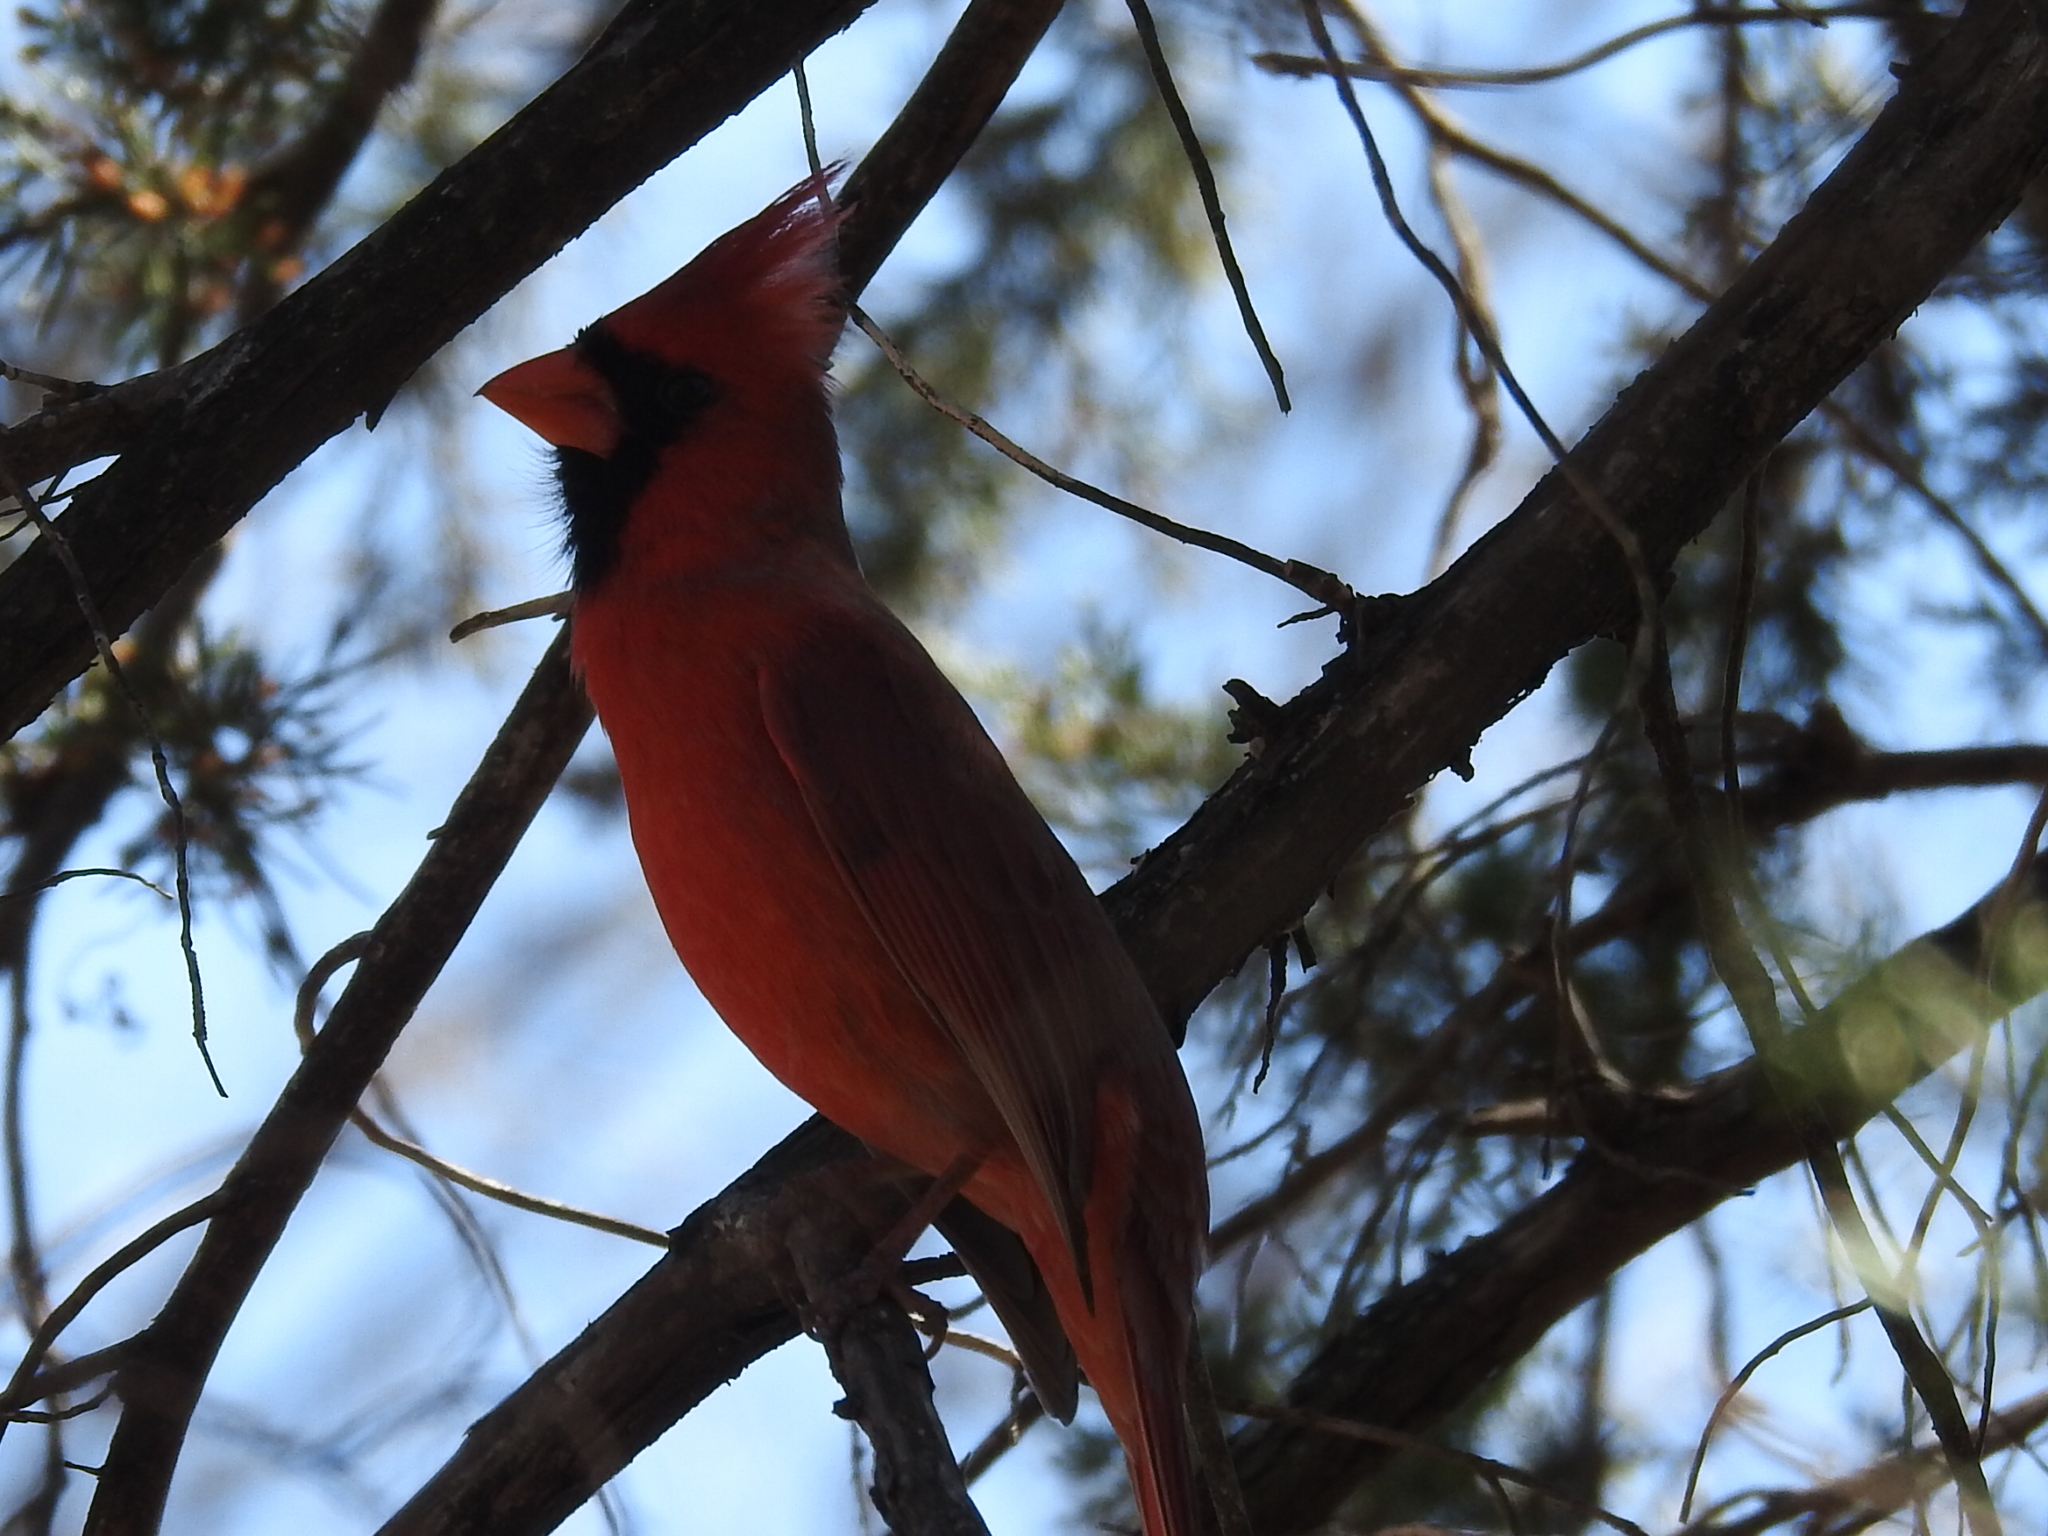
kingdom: Animalia
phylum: Chordata
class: Aves
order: Passeriformes
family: Cardinalidae
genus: Cardinalis
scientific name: Cardinalis cardinalis
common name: Northern cardinal
